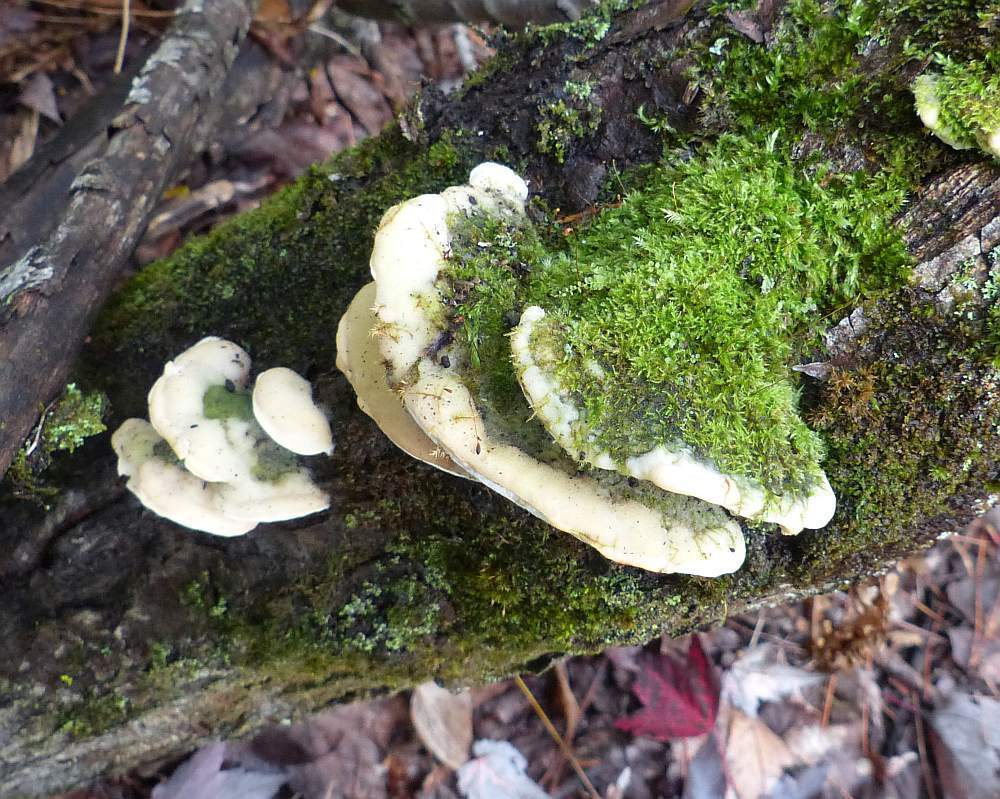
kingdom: Fungi
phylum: Basidiomycota
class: Agaricomycetes
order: Hymenochaetales
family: Oxyporaceae
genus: Oxyporus
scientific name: Oxyporus populinus
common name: Poplar bracket
